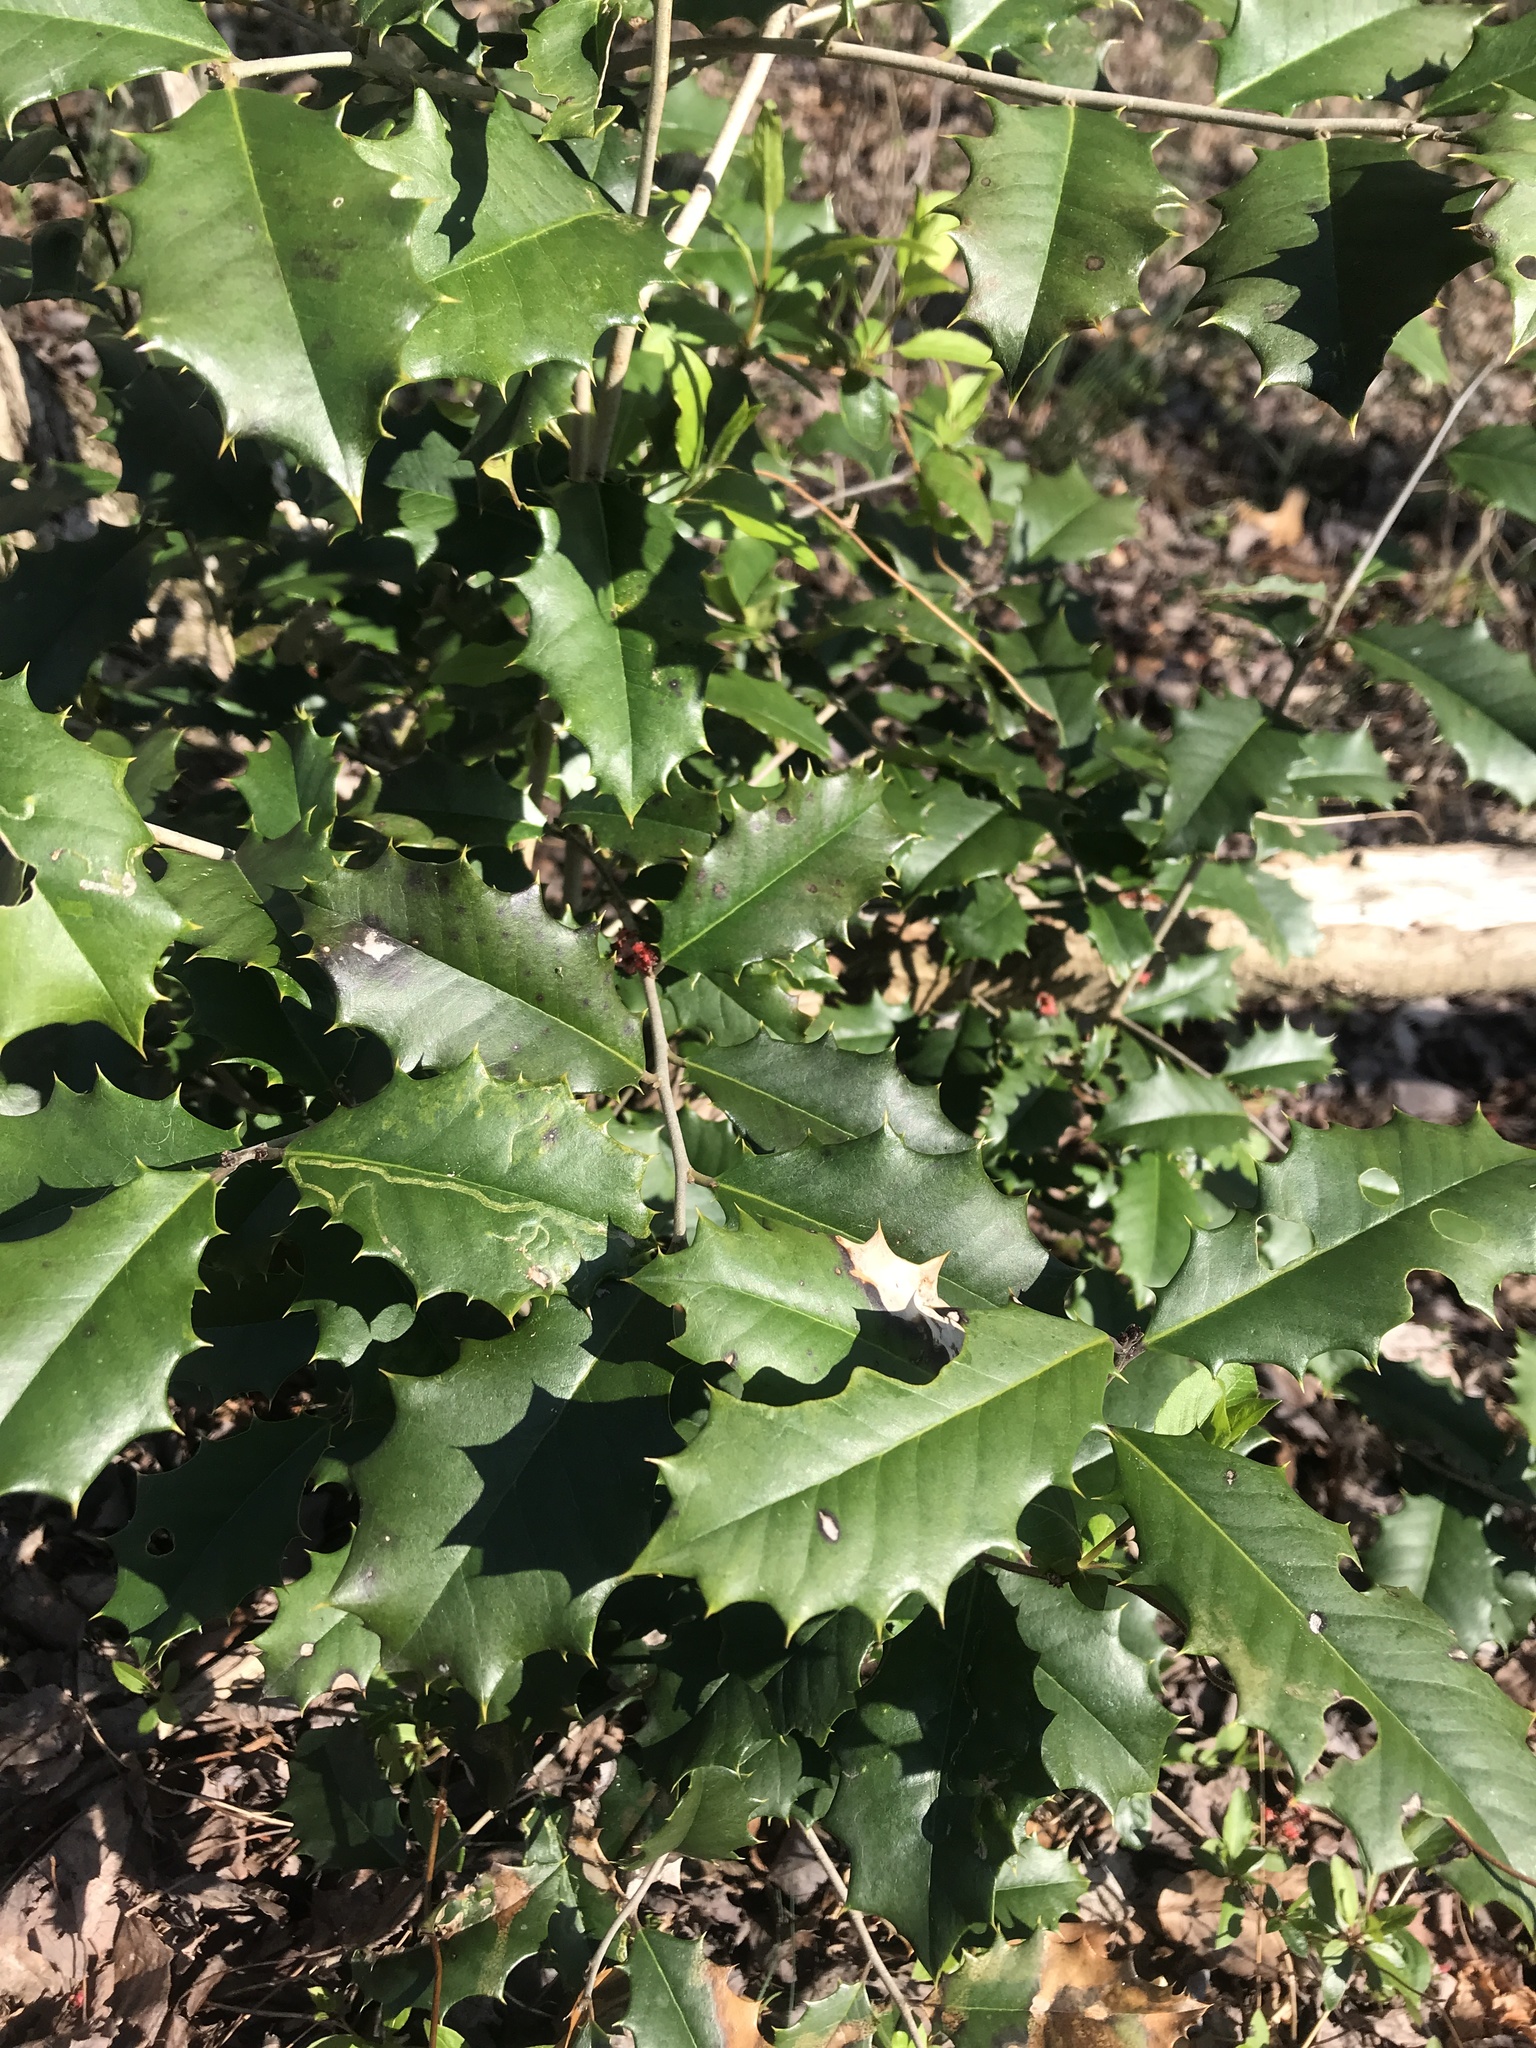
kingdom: Plantae
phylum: Tracheophyta
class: Magnoliopsida
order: Aquifoliales
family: Aquifoliaceae
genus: Ilex
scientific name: Ilex opaca
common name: American holly
